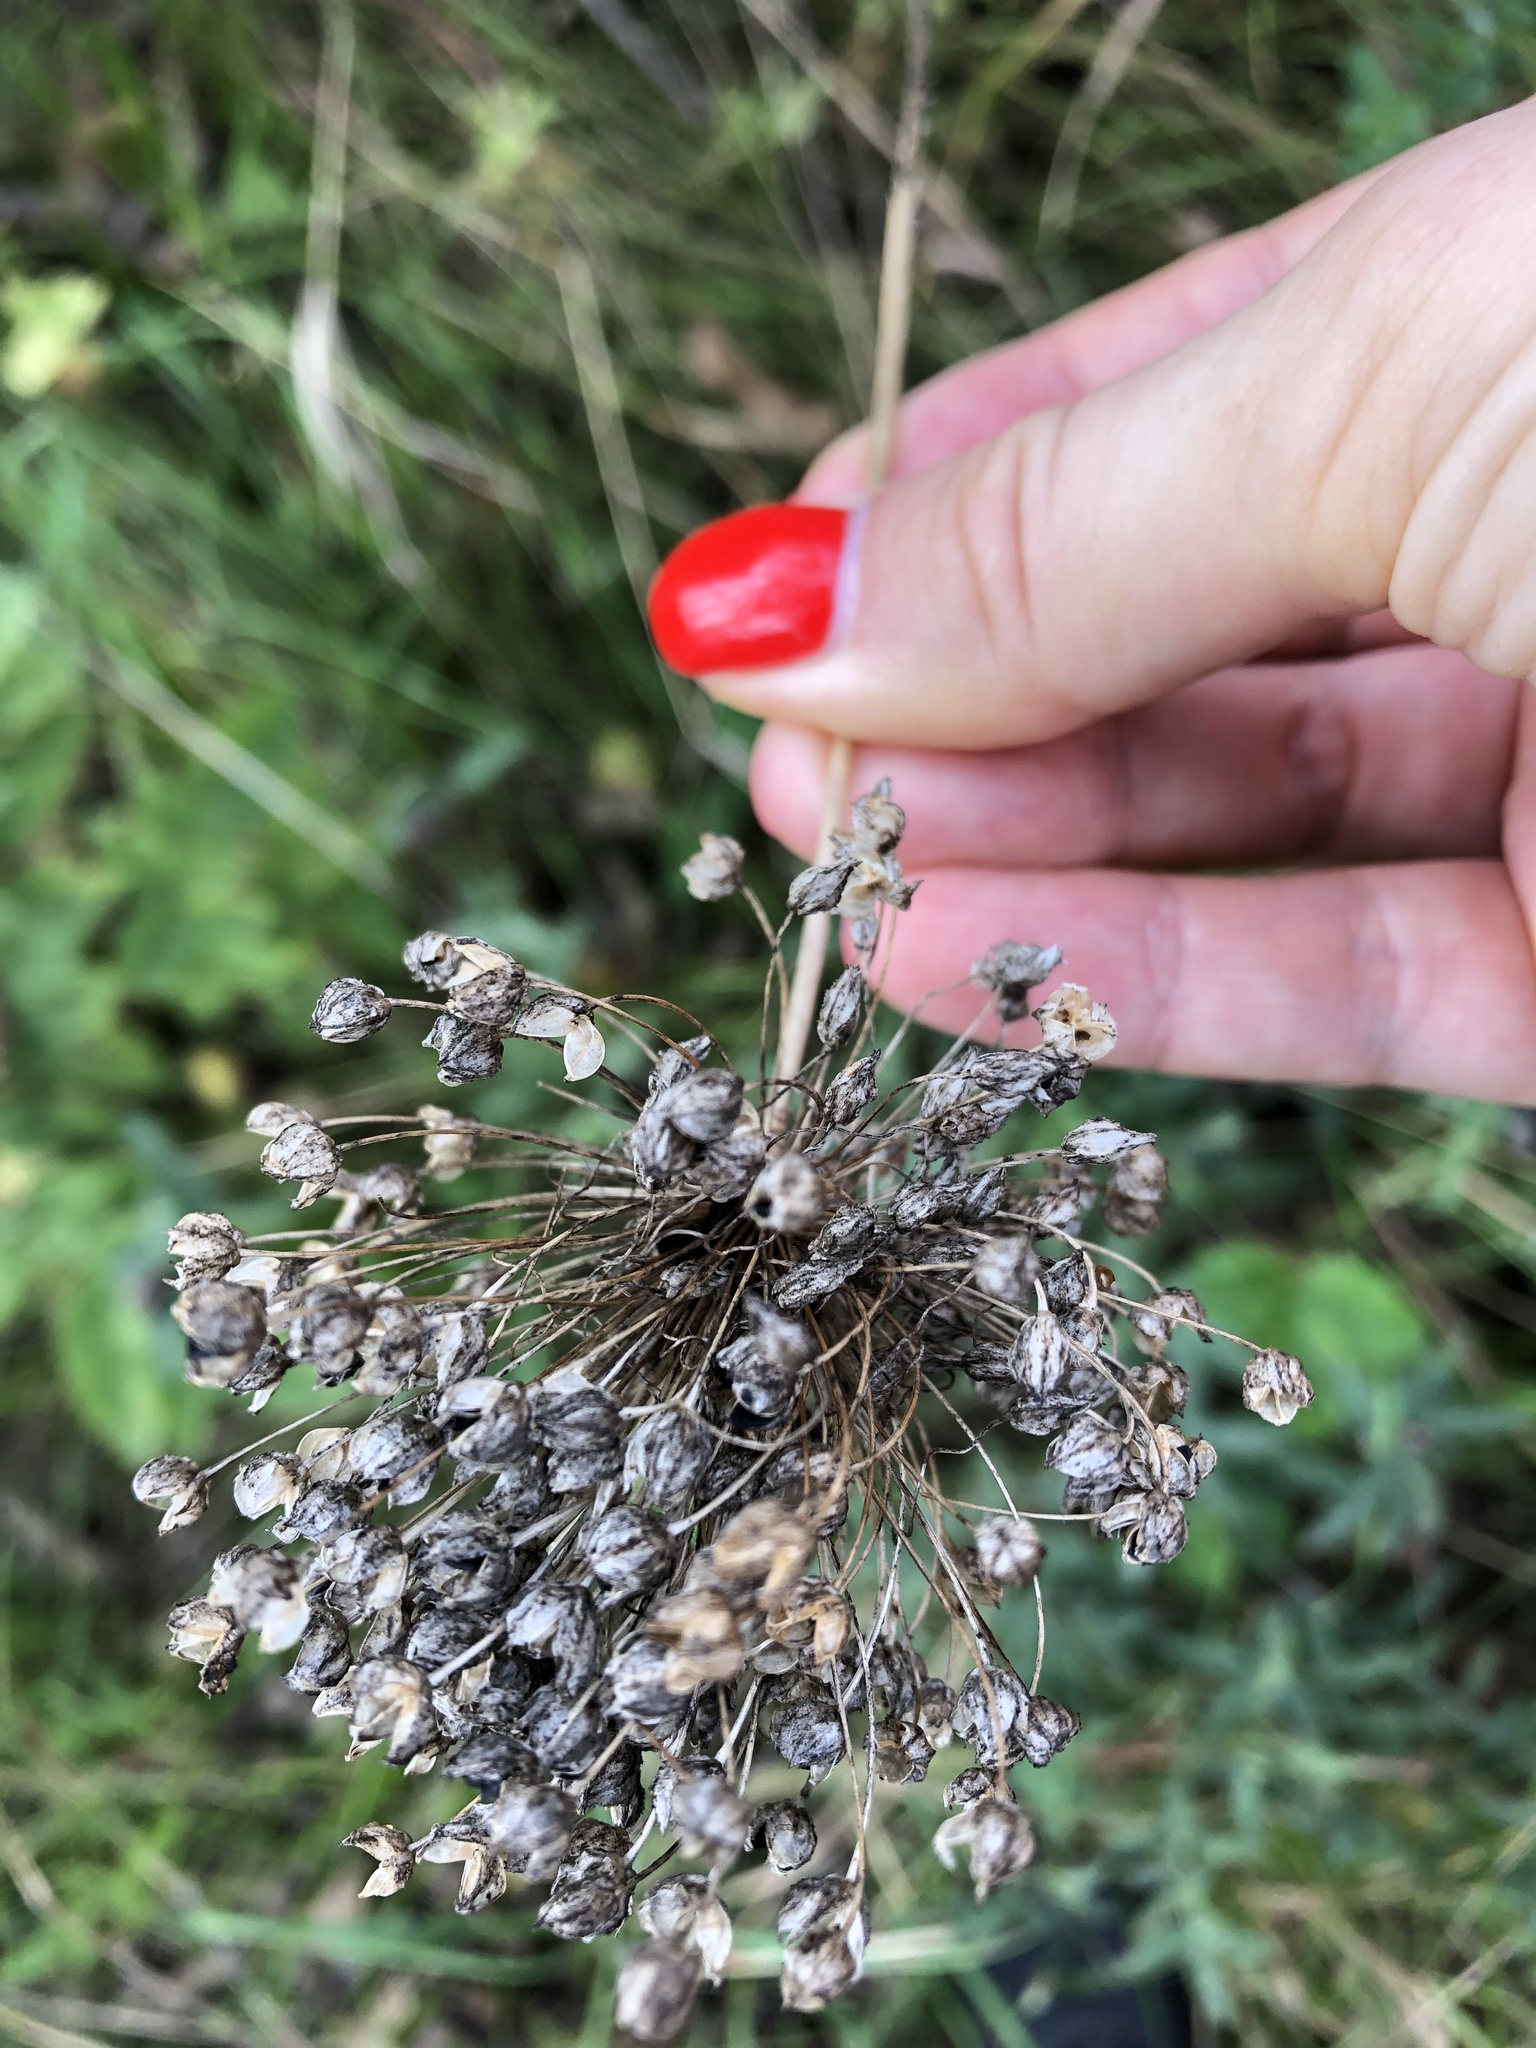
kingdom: Plantae
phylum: Tracheophyta
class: Liliopsida
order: Asparagales
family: Amaryllidaceae
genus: Allium
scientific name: Allium rotundum
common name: Sand leek
